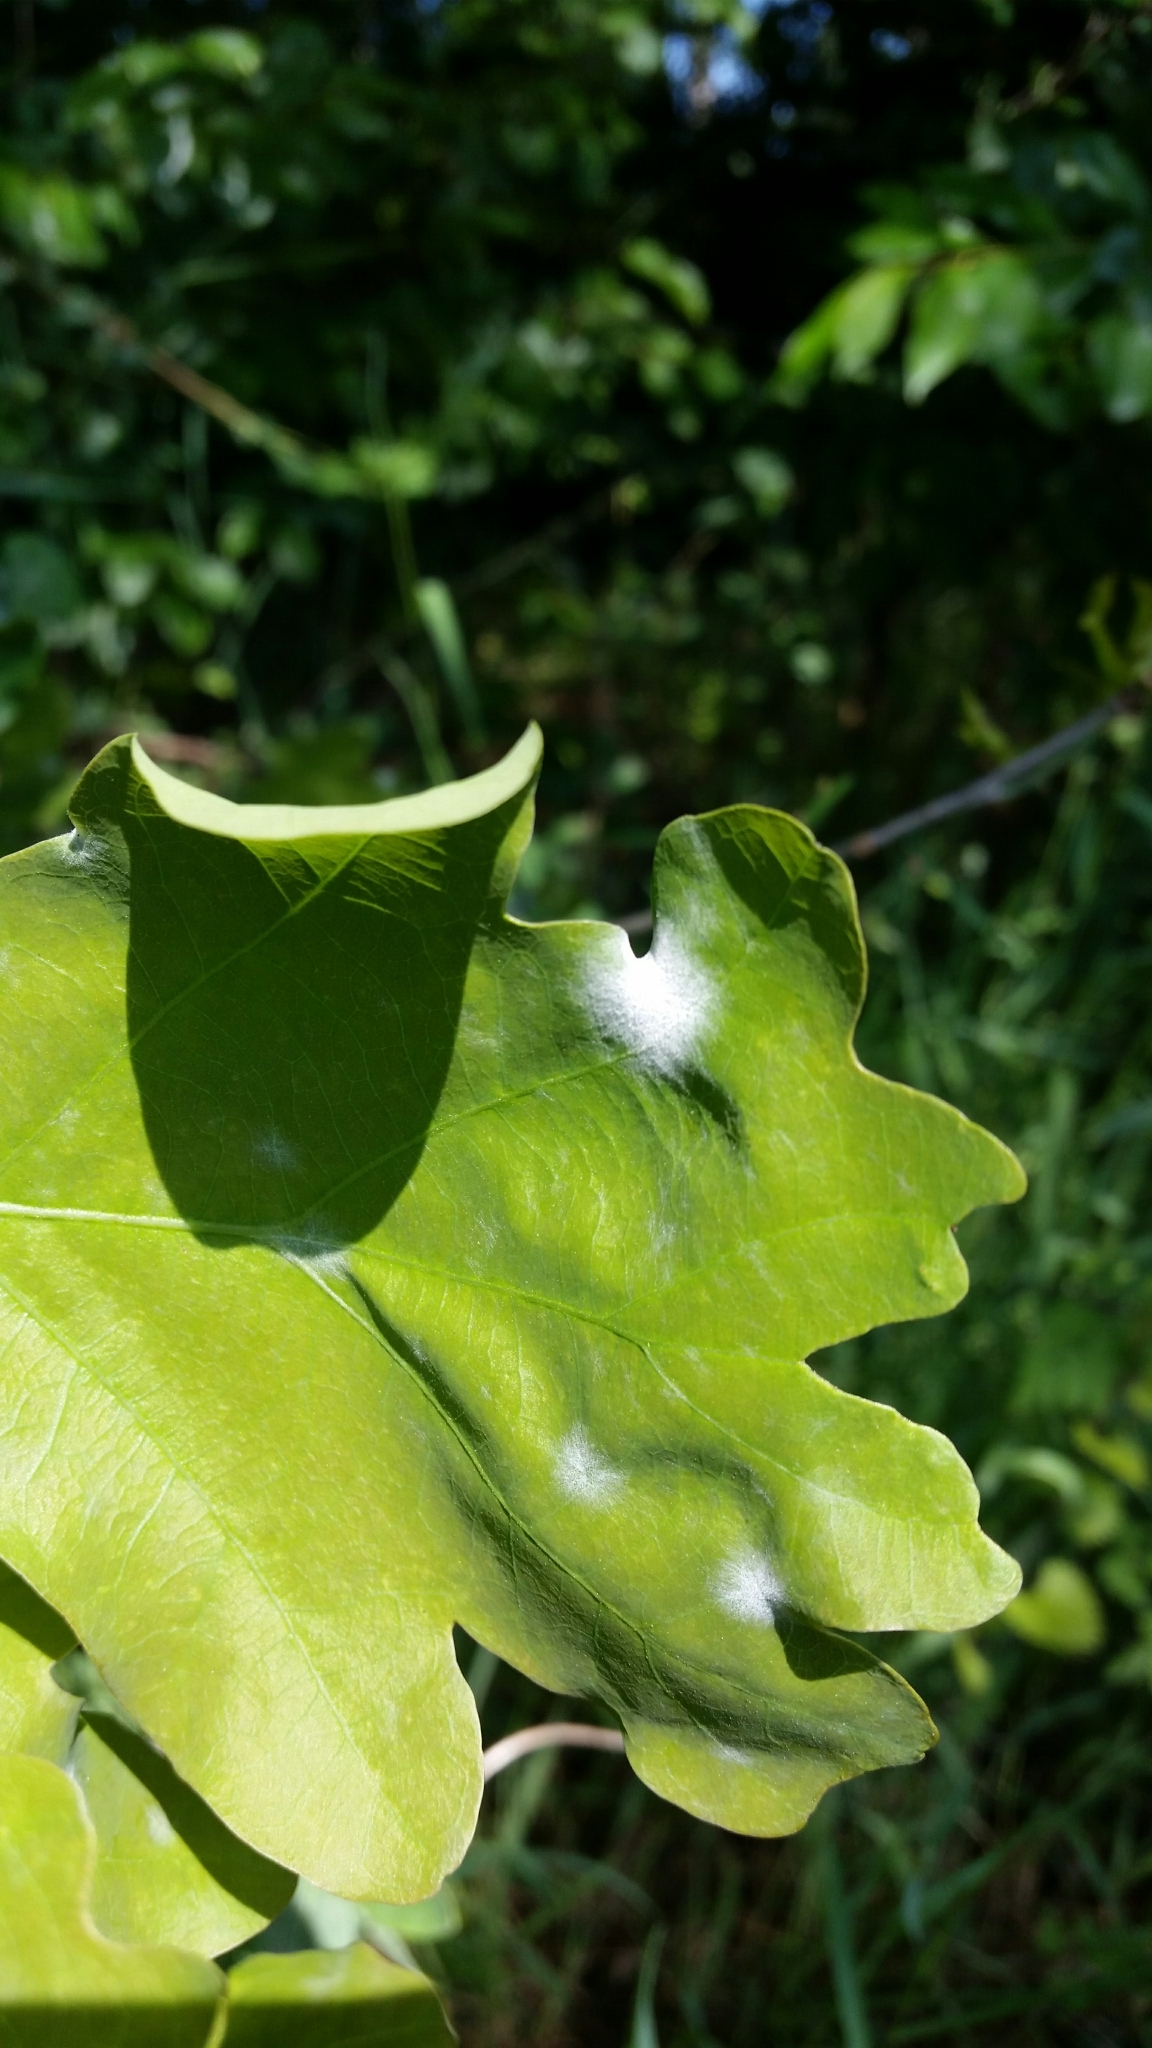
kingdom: Fungi
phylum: Ascomycota
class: Leotiomycetes
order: Helotiales
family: Erysiphaceae
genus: Erysiphe
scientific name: Erysiphe
